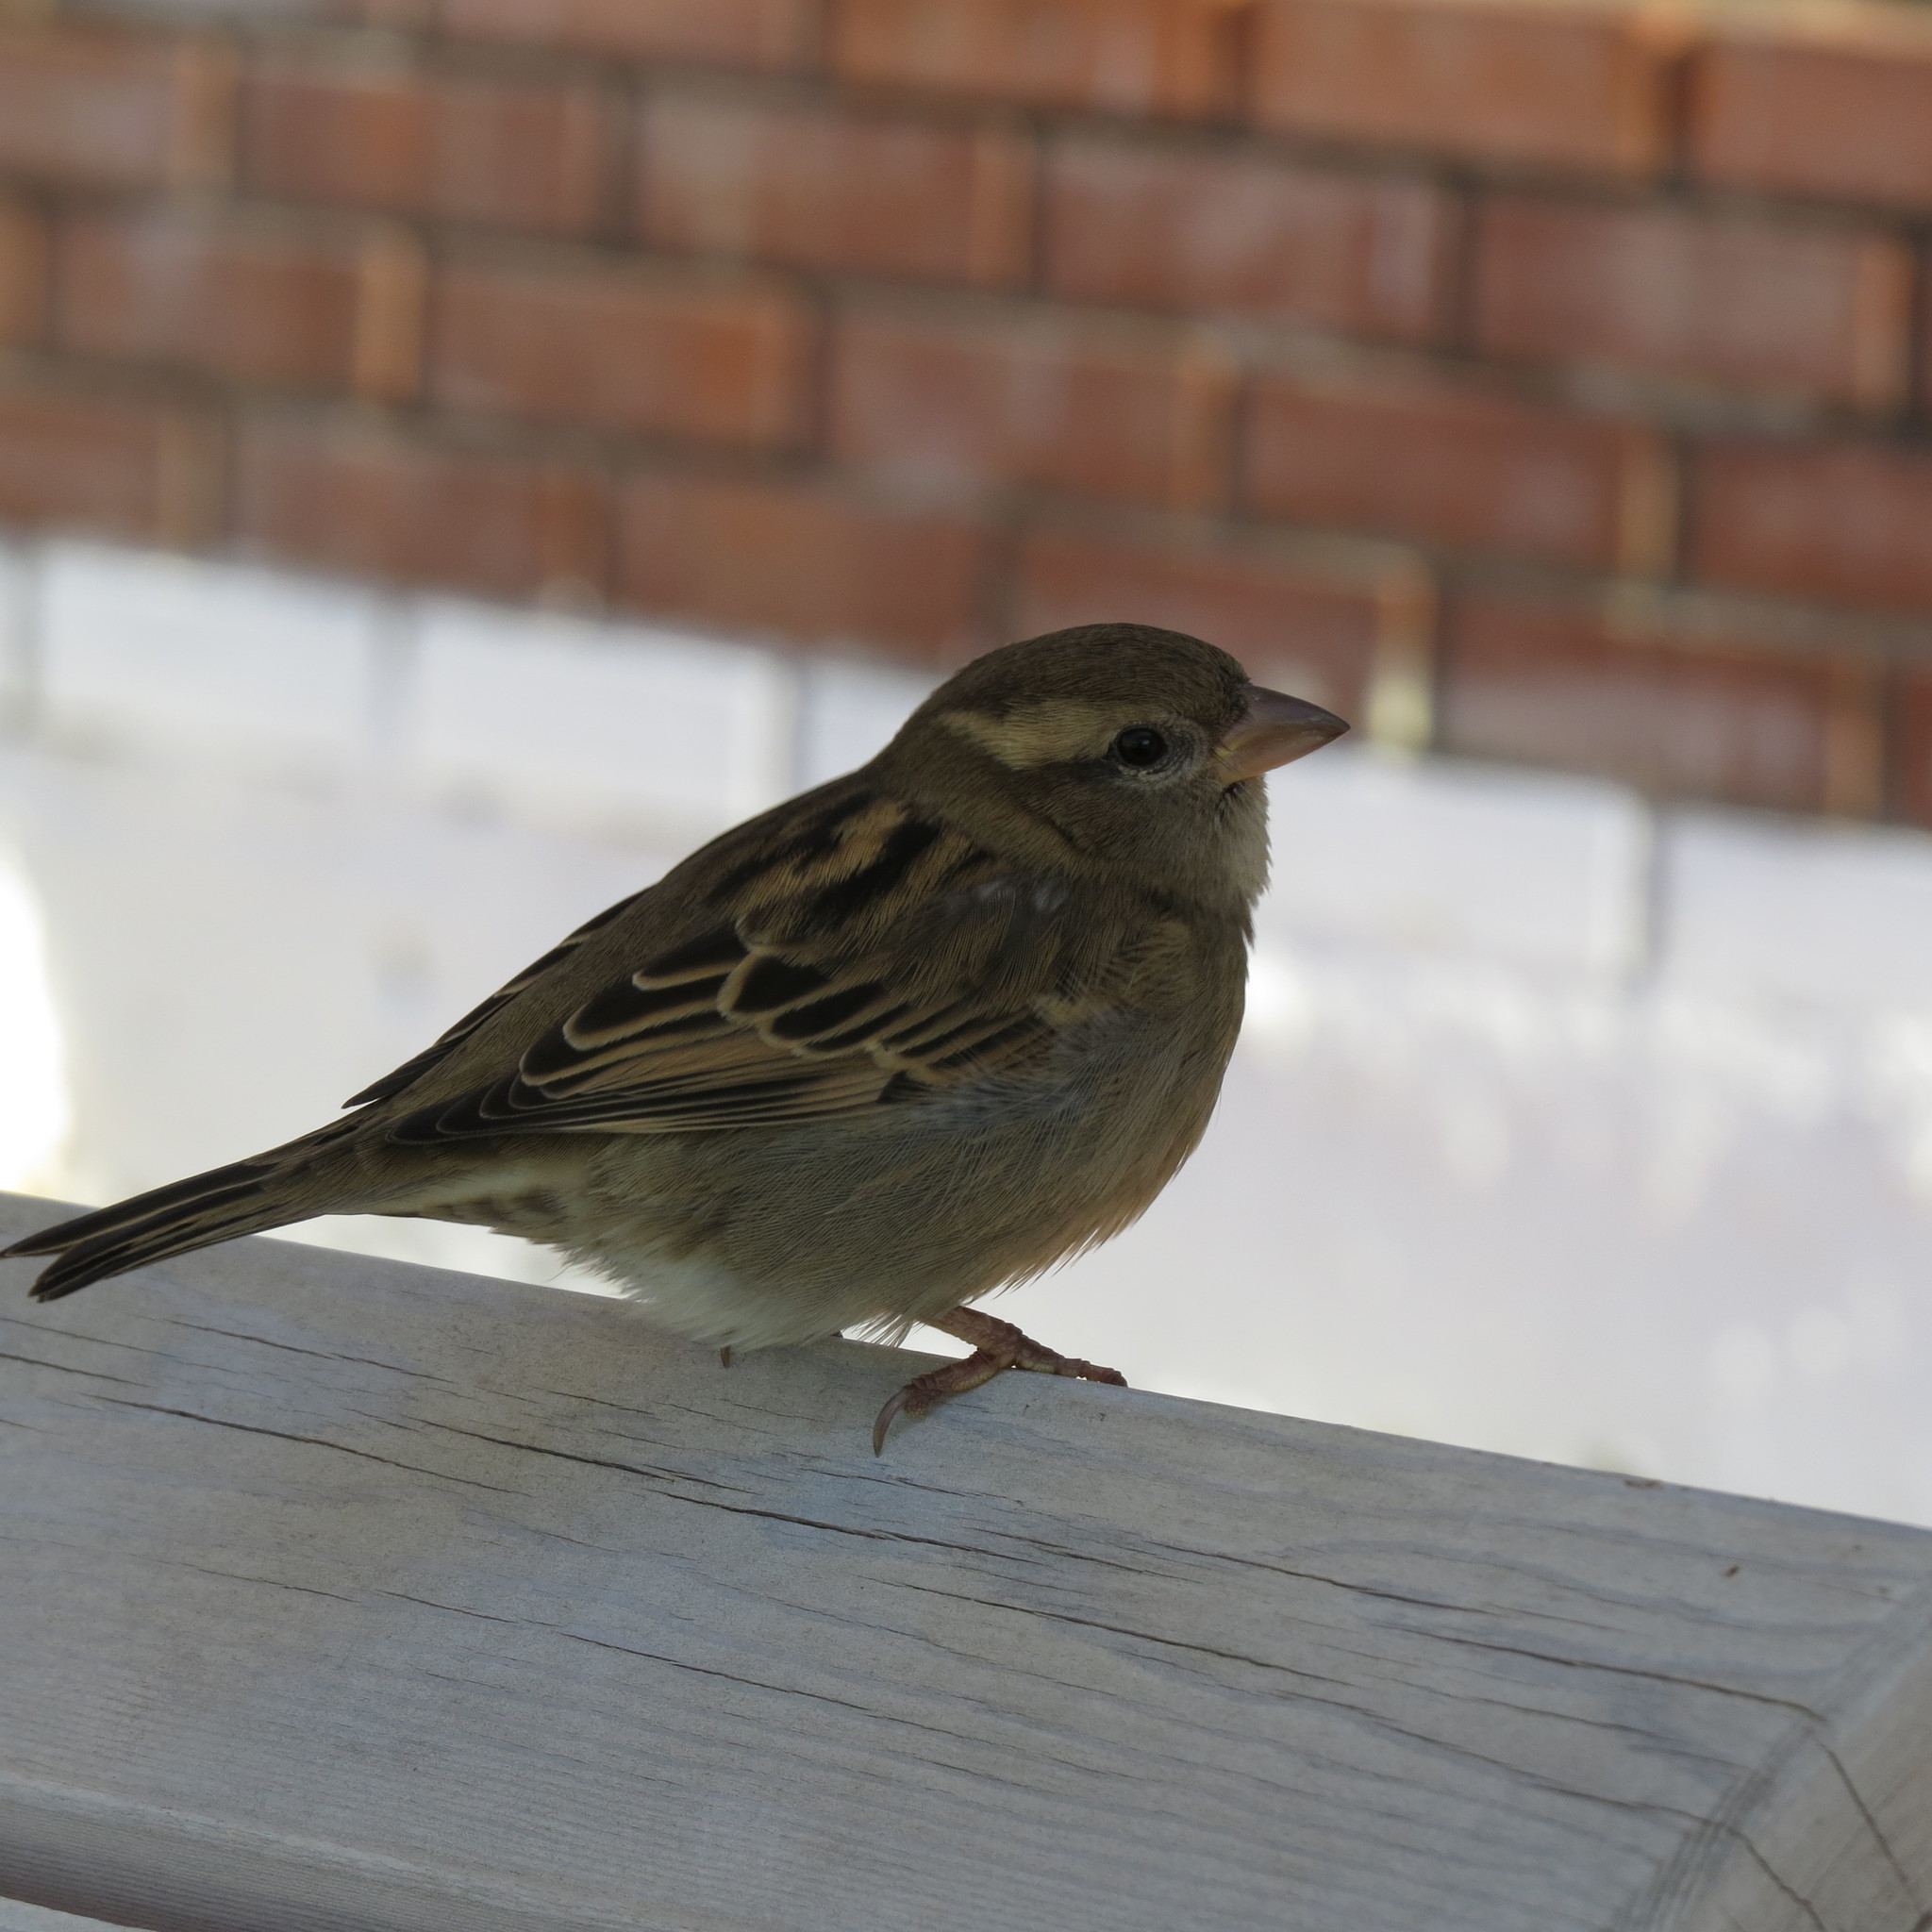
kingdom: Animalia
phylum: Chordata
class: Aves
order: Passeriformes
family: Passeridae
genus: Passer
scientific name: Passer domesticus
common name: House sparrow
